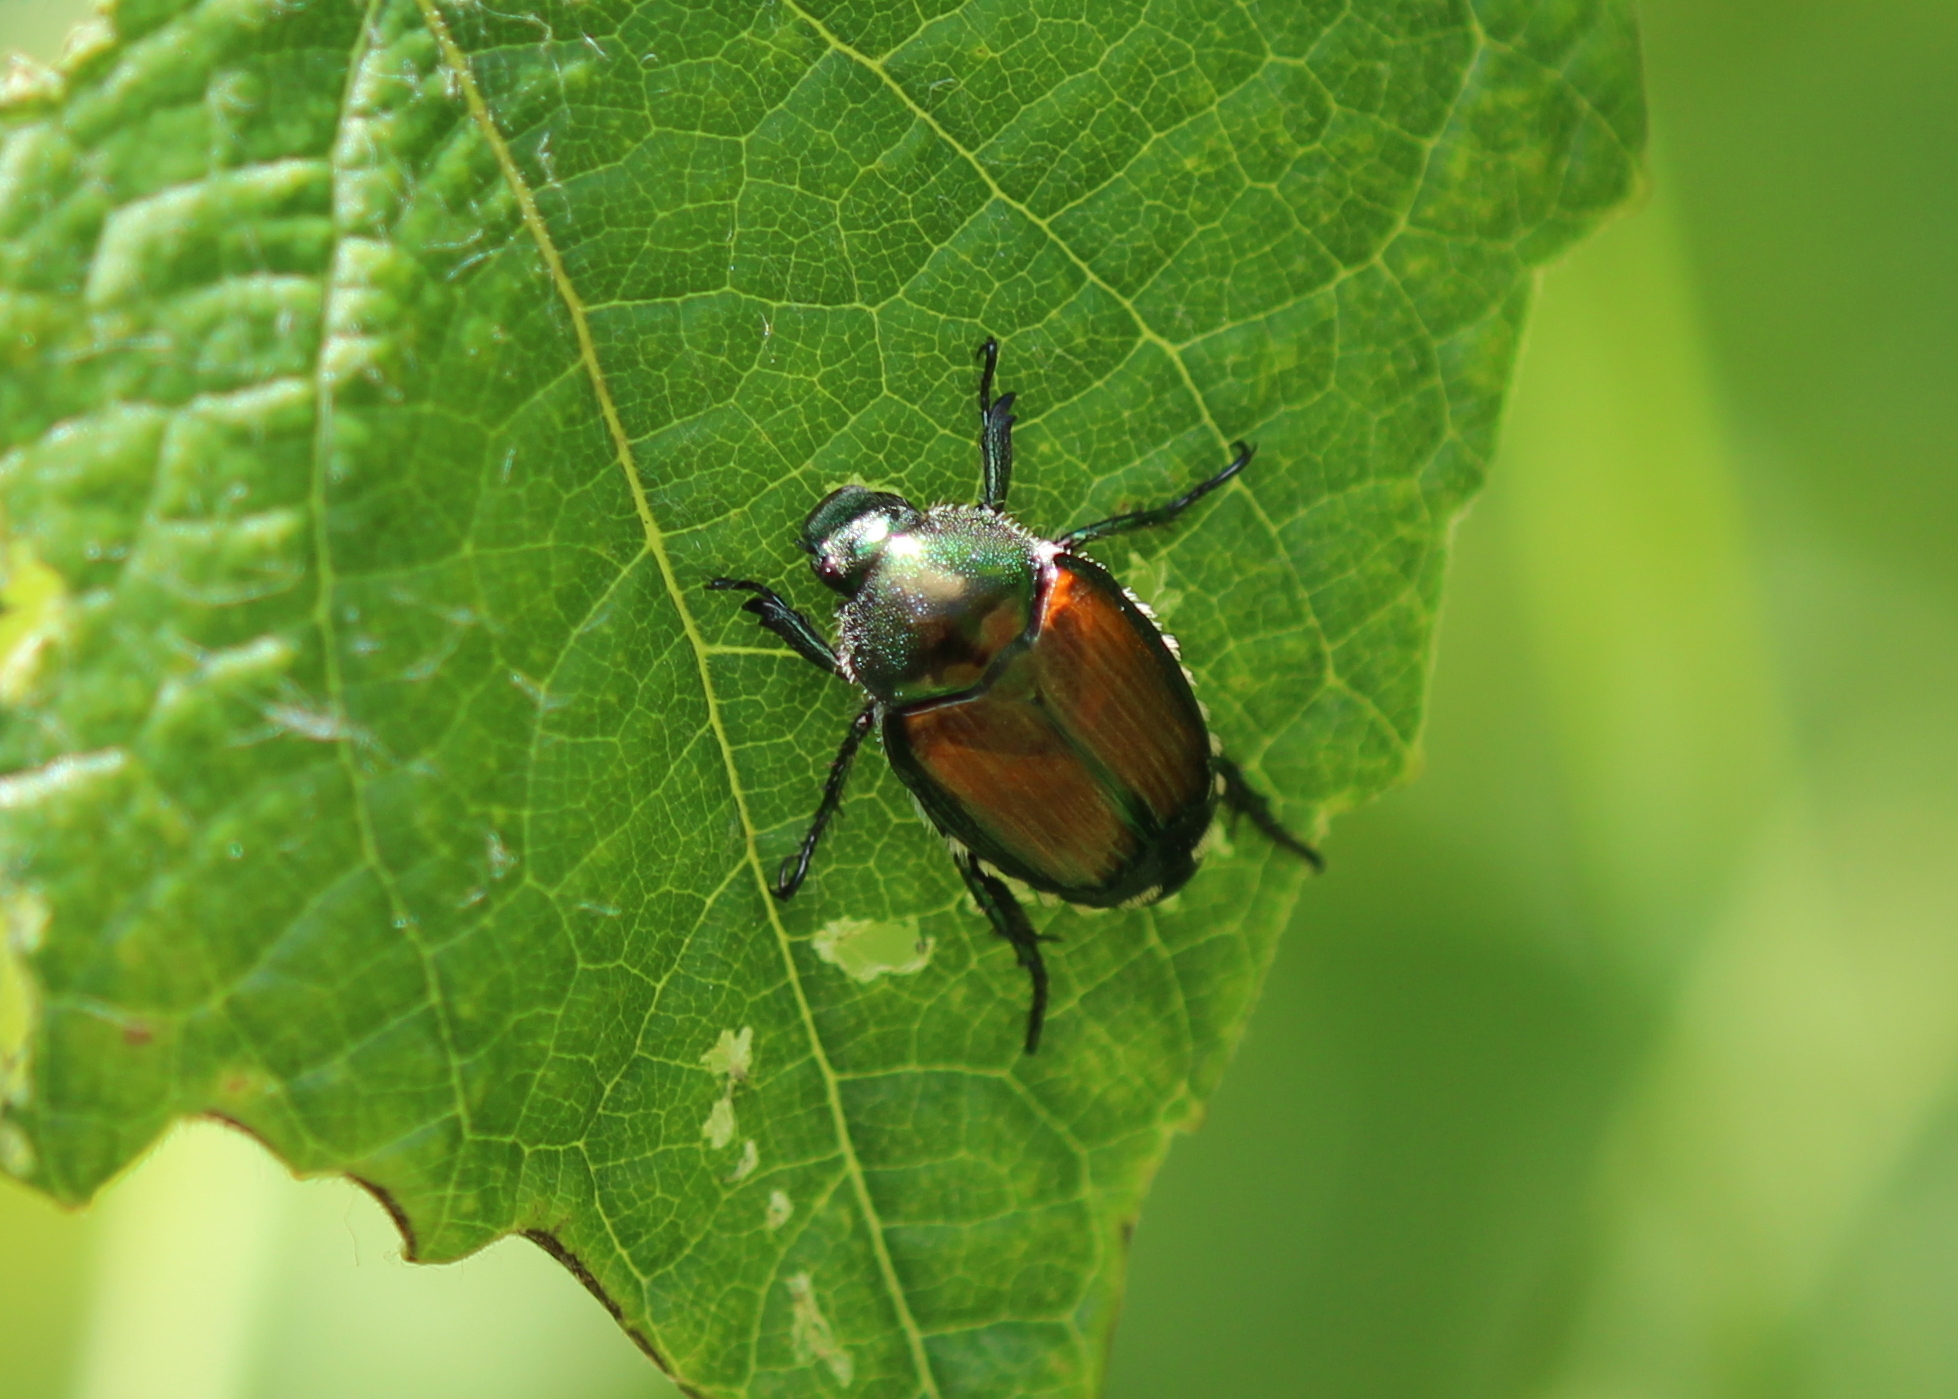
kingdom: Animalia
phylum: Arthropoda
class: Insecta
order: Coleoptera
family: Scarabaeidae
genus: Popillia
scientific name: Popillia japonica
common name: Japanese beetle
